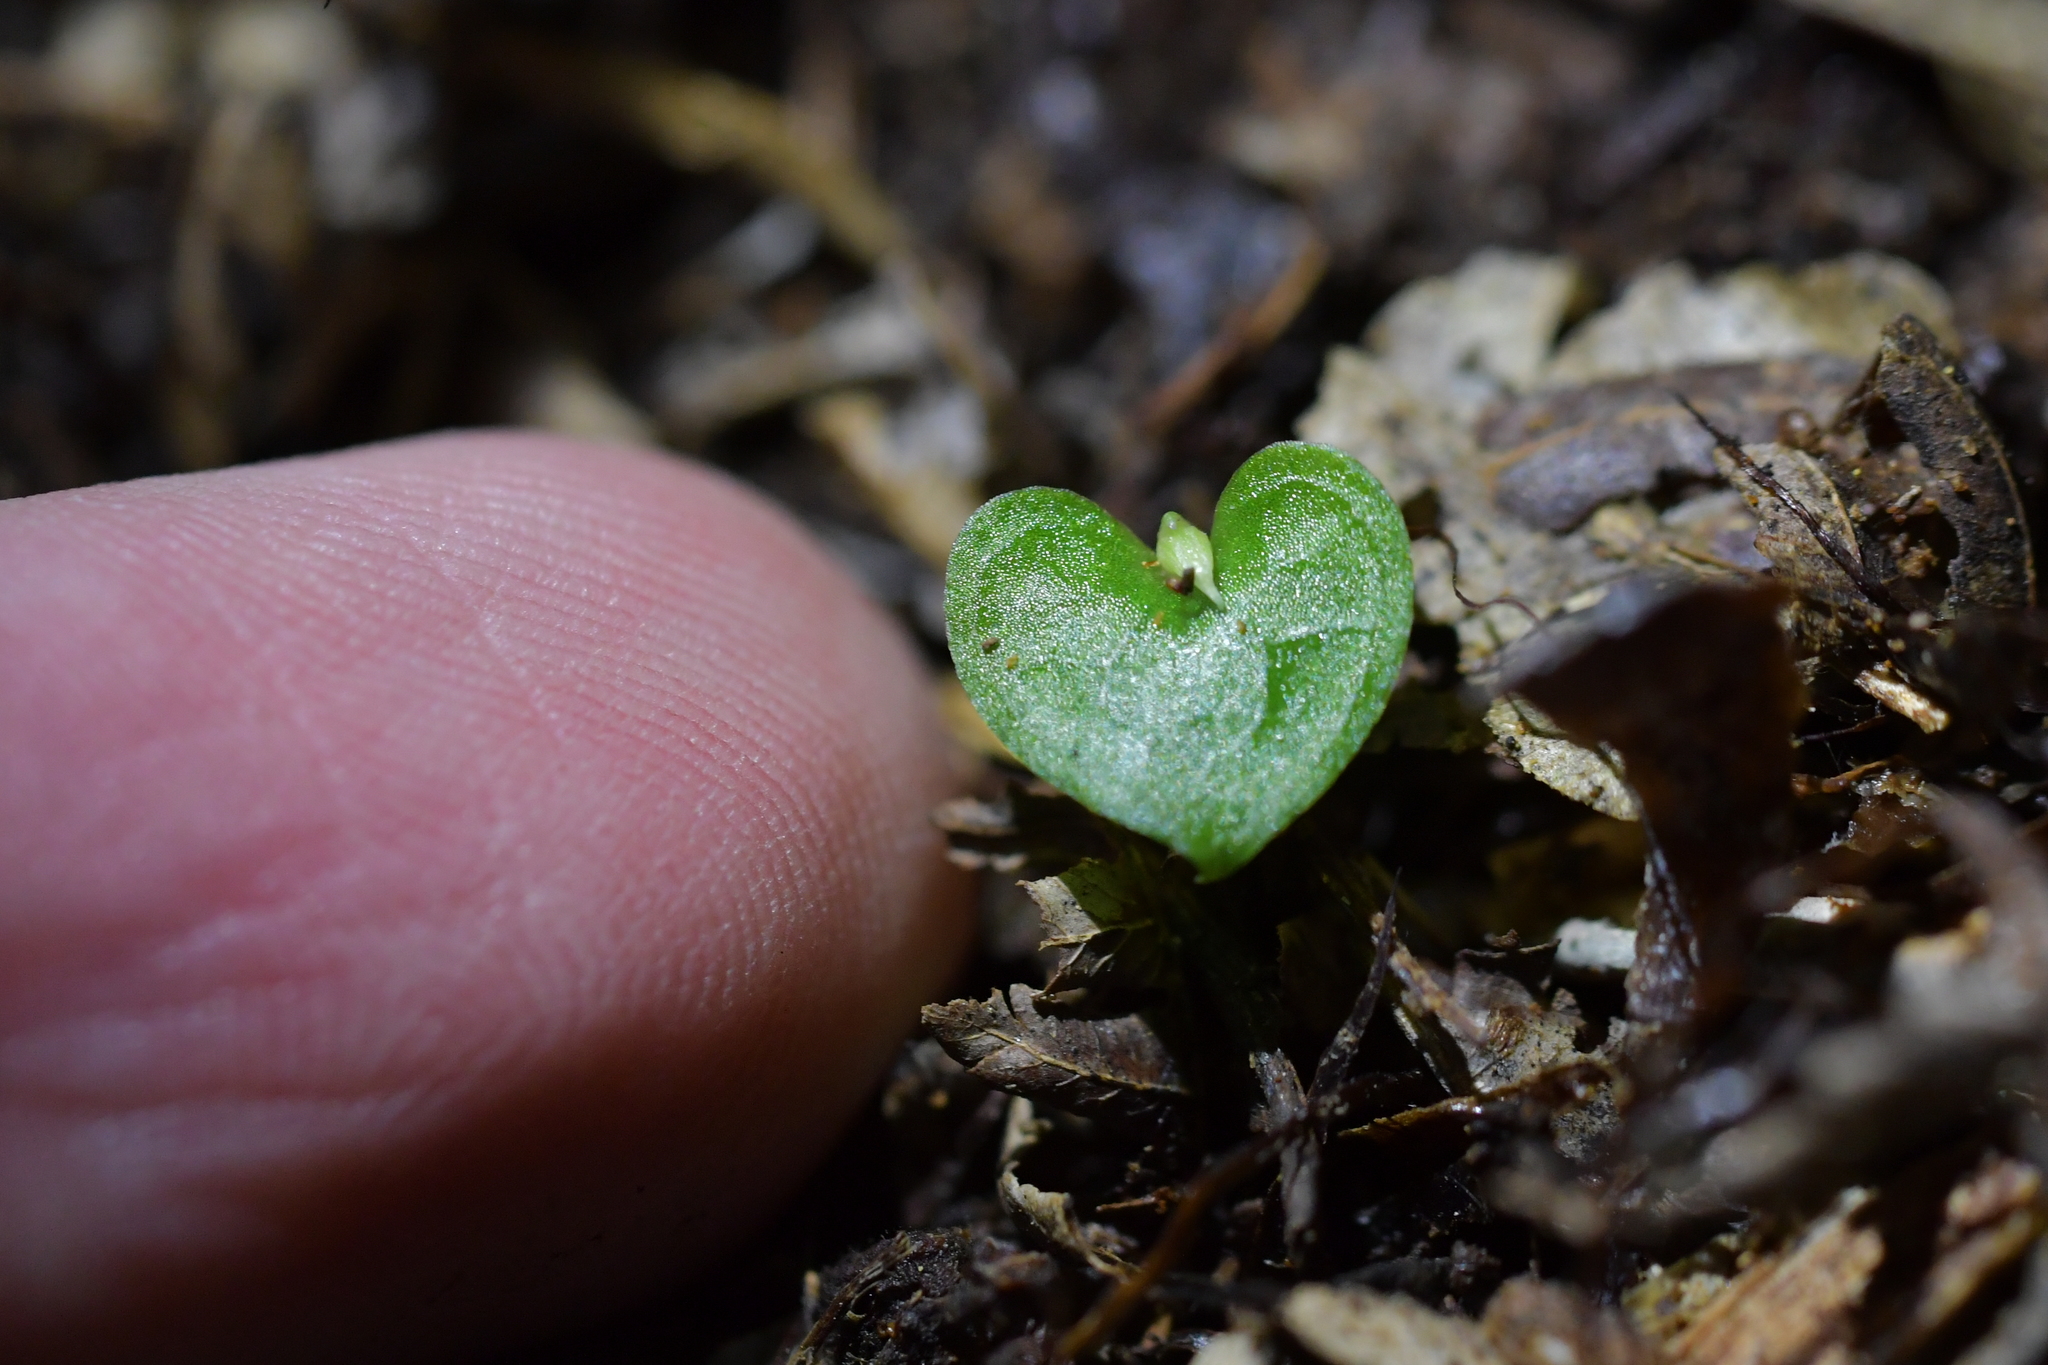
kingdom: Plantae
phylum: Tracheophyta
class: Liliopsida
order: Asparagales
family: Orchidaceae
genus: Corybas
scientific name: Corybas cheesemanii
